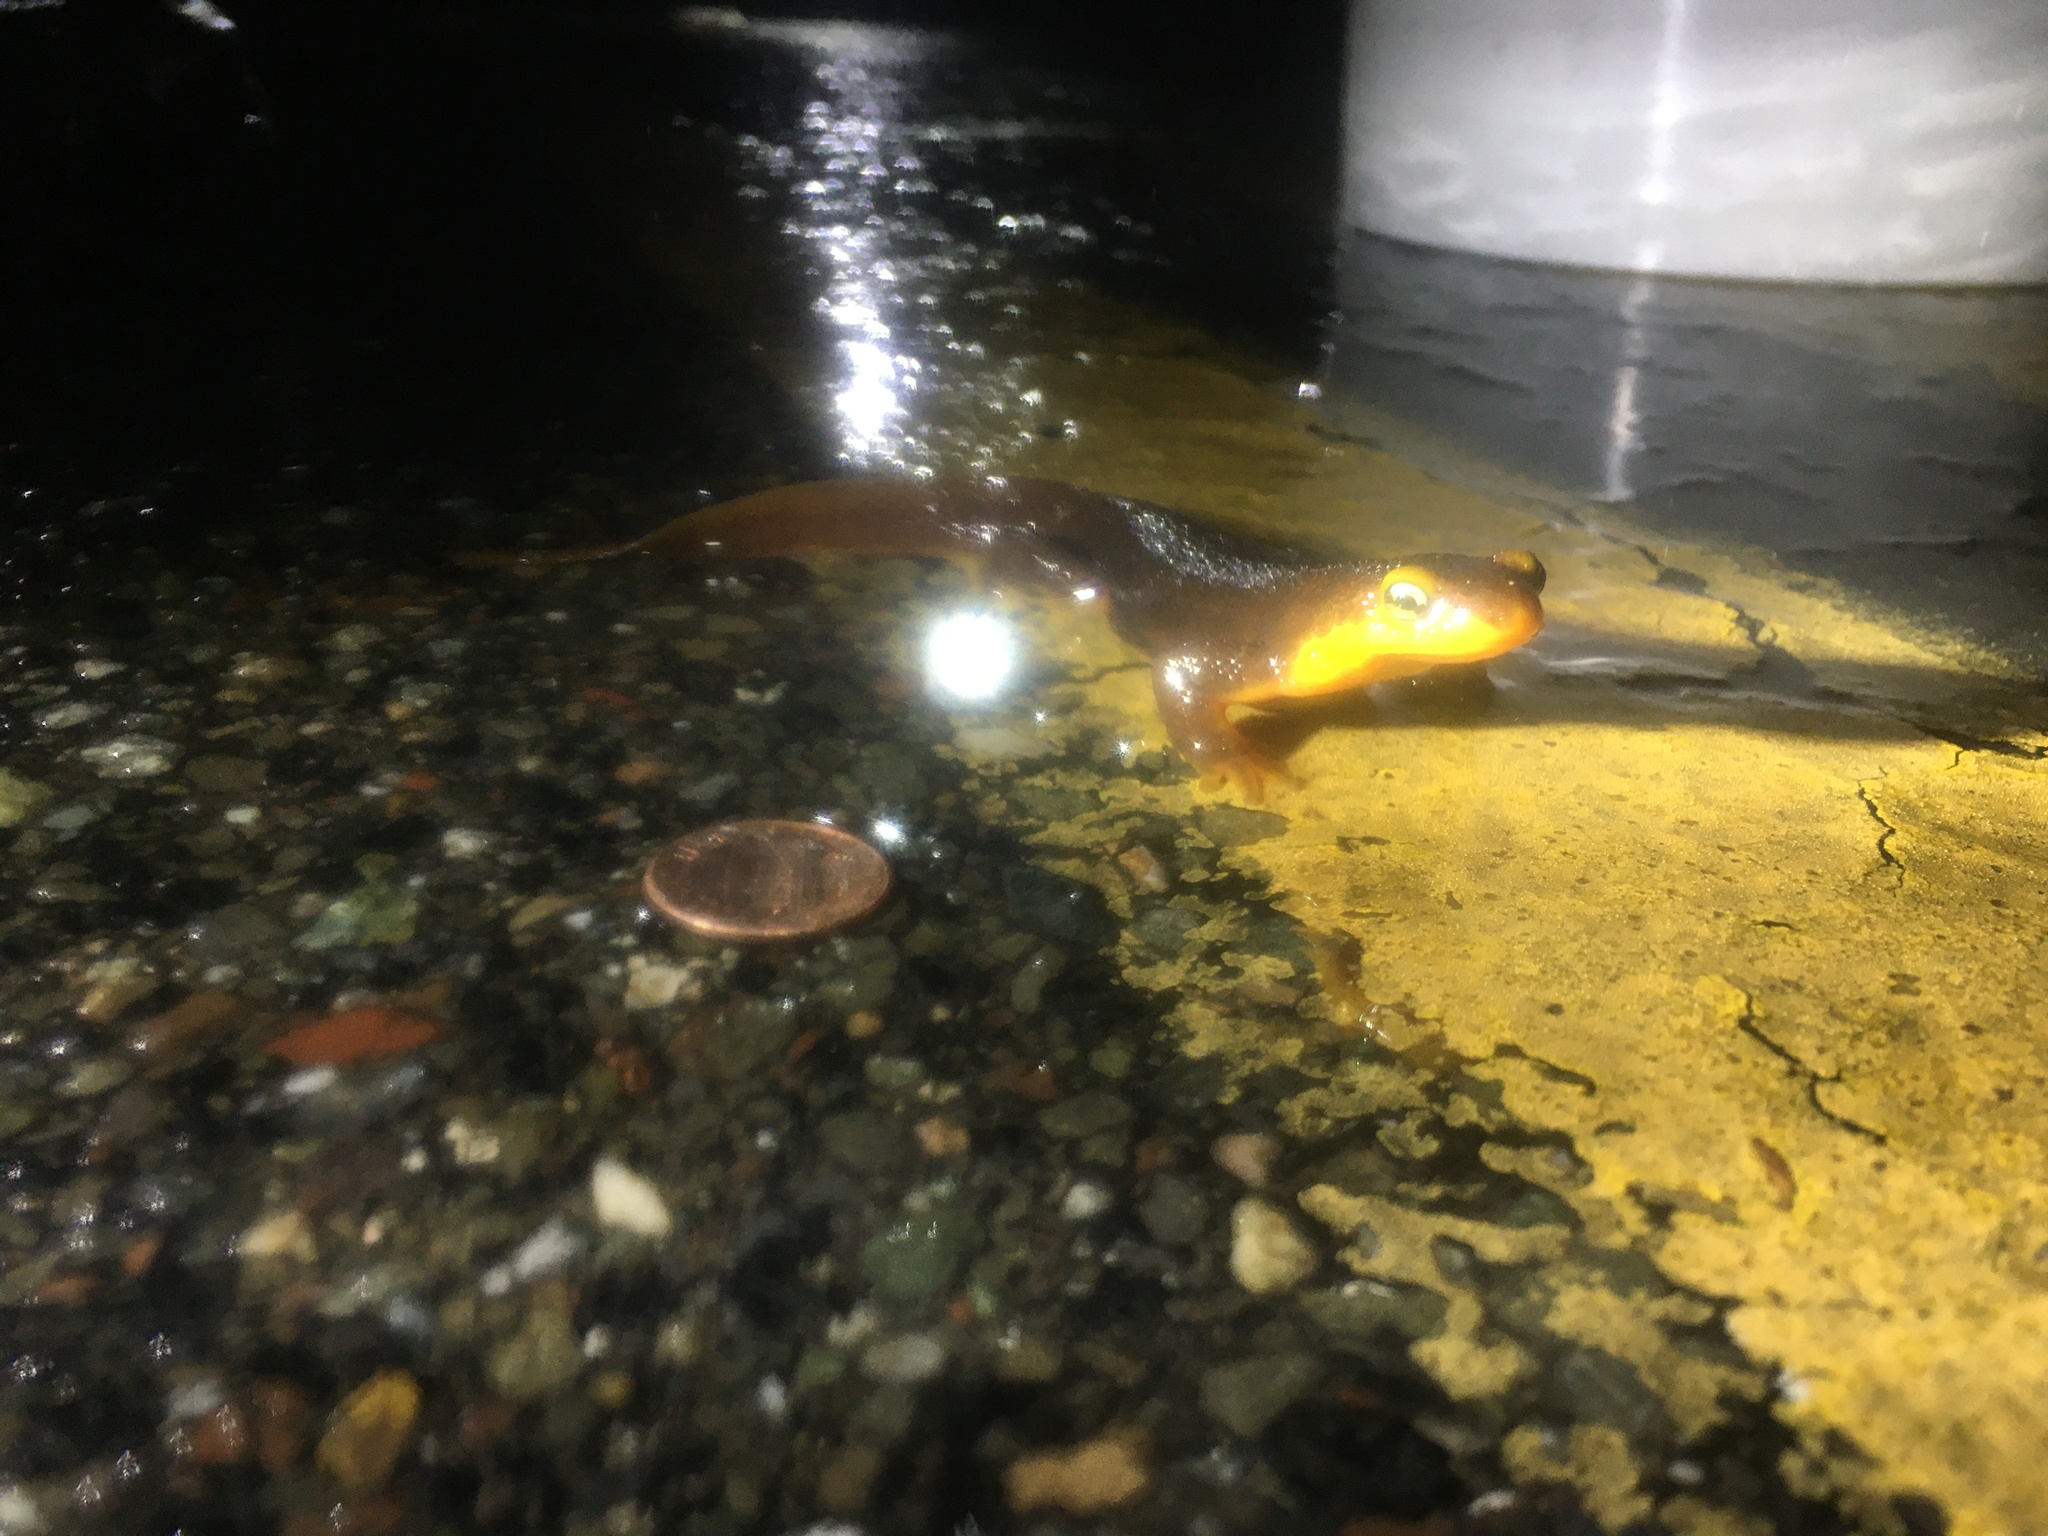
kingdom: Animalia
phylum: Chordata
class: Amphibia
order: Caudata
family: Salamandridae
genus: Taricha
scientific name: Taricha torosa
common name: California newt
